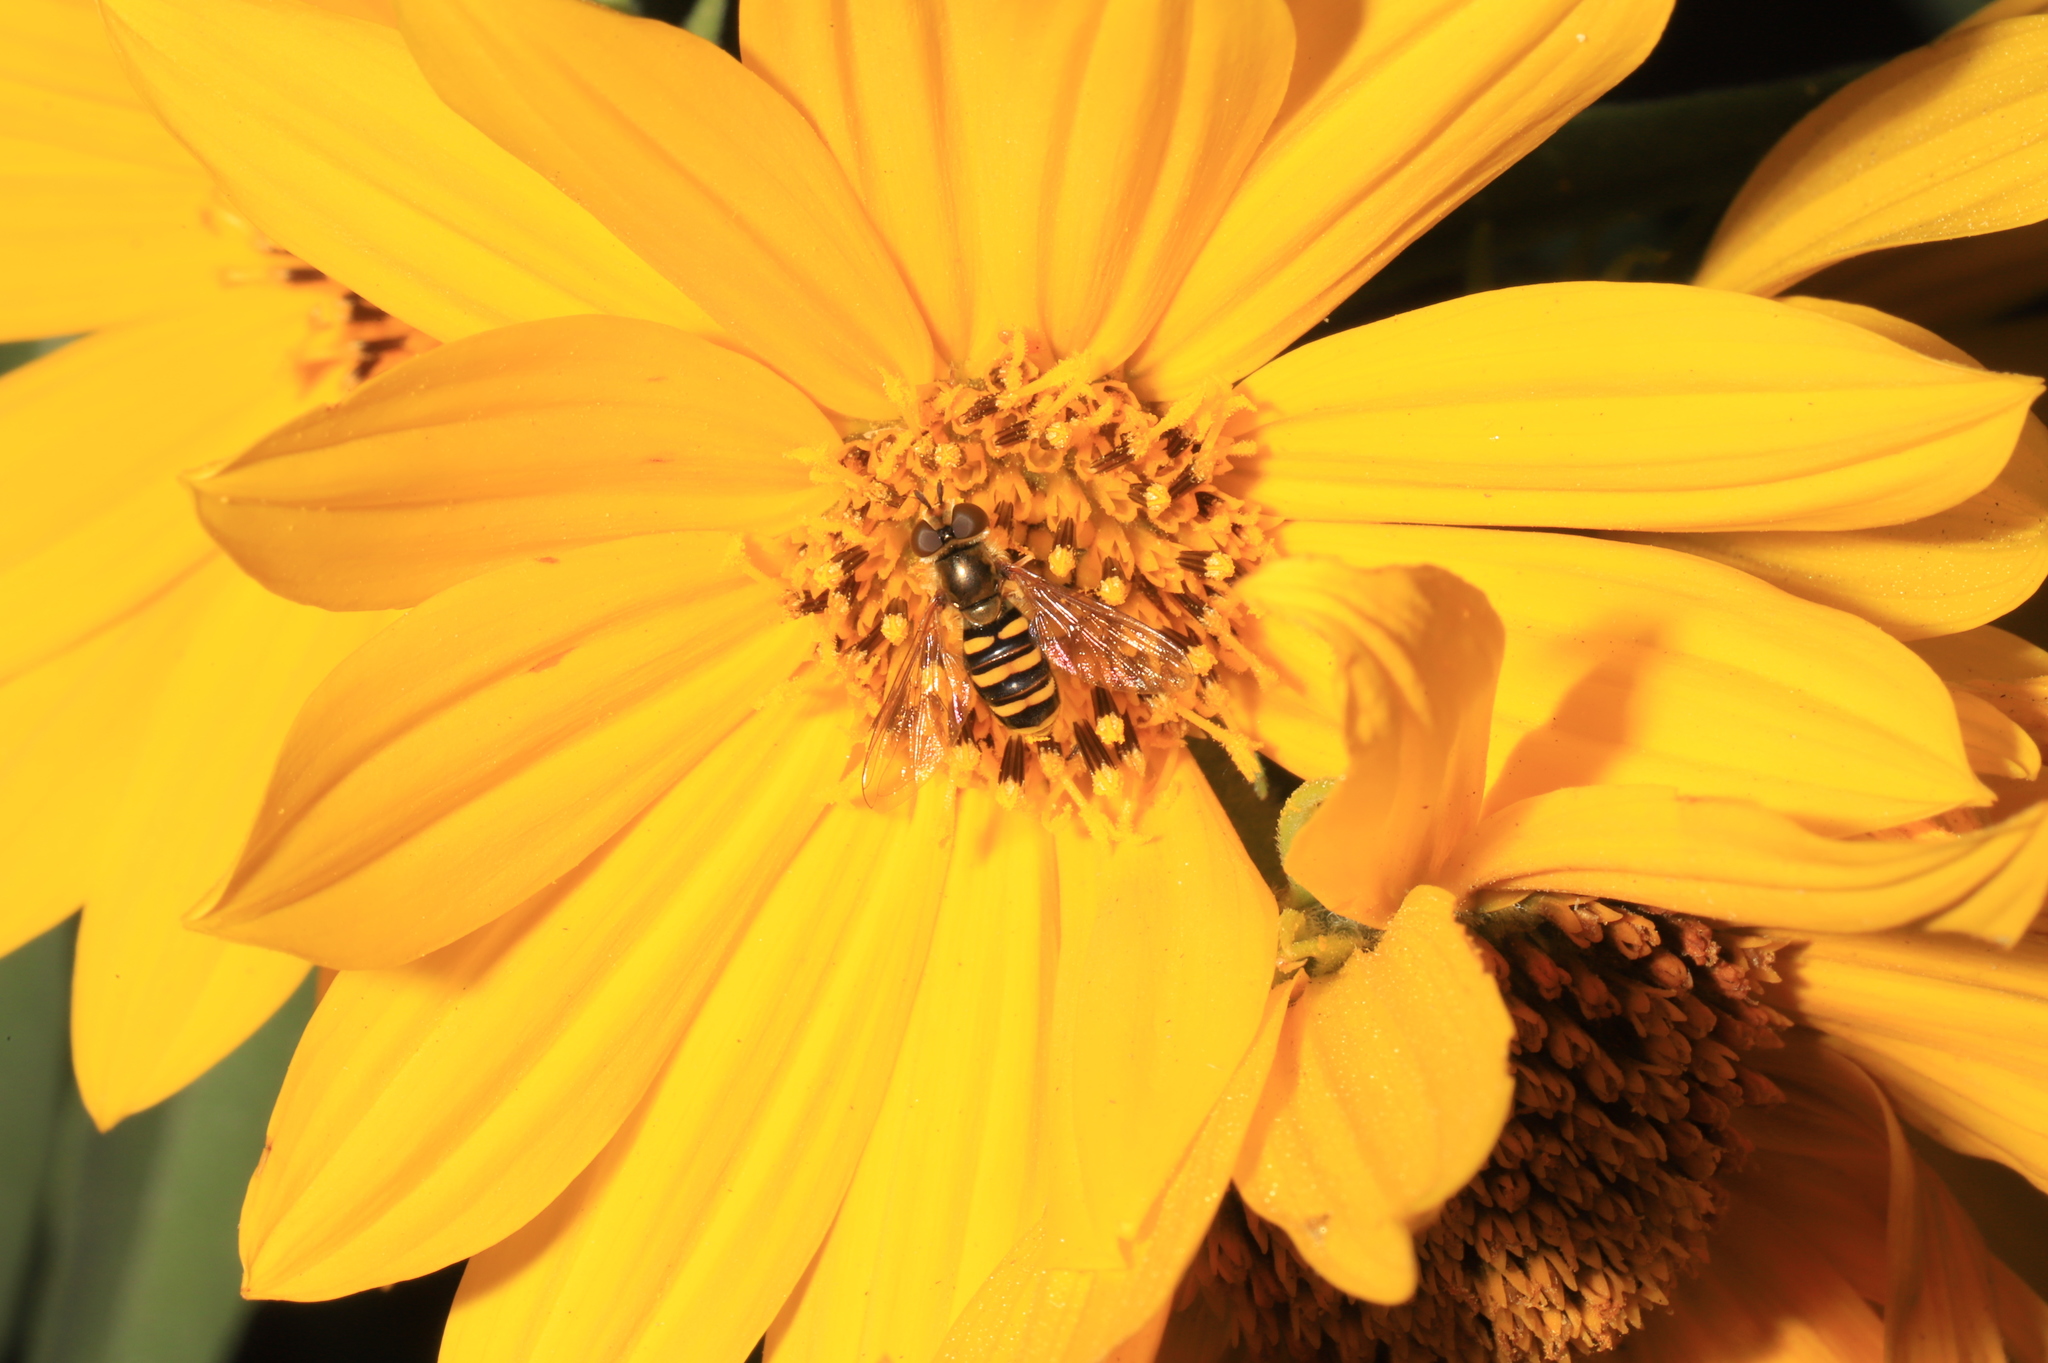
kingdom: Animalia
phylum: Arthropoda
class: Insecta
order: Diptera
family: Syrphidae
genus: Eupeodes
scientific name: Eupeodes
